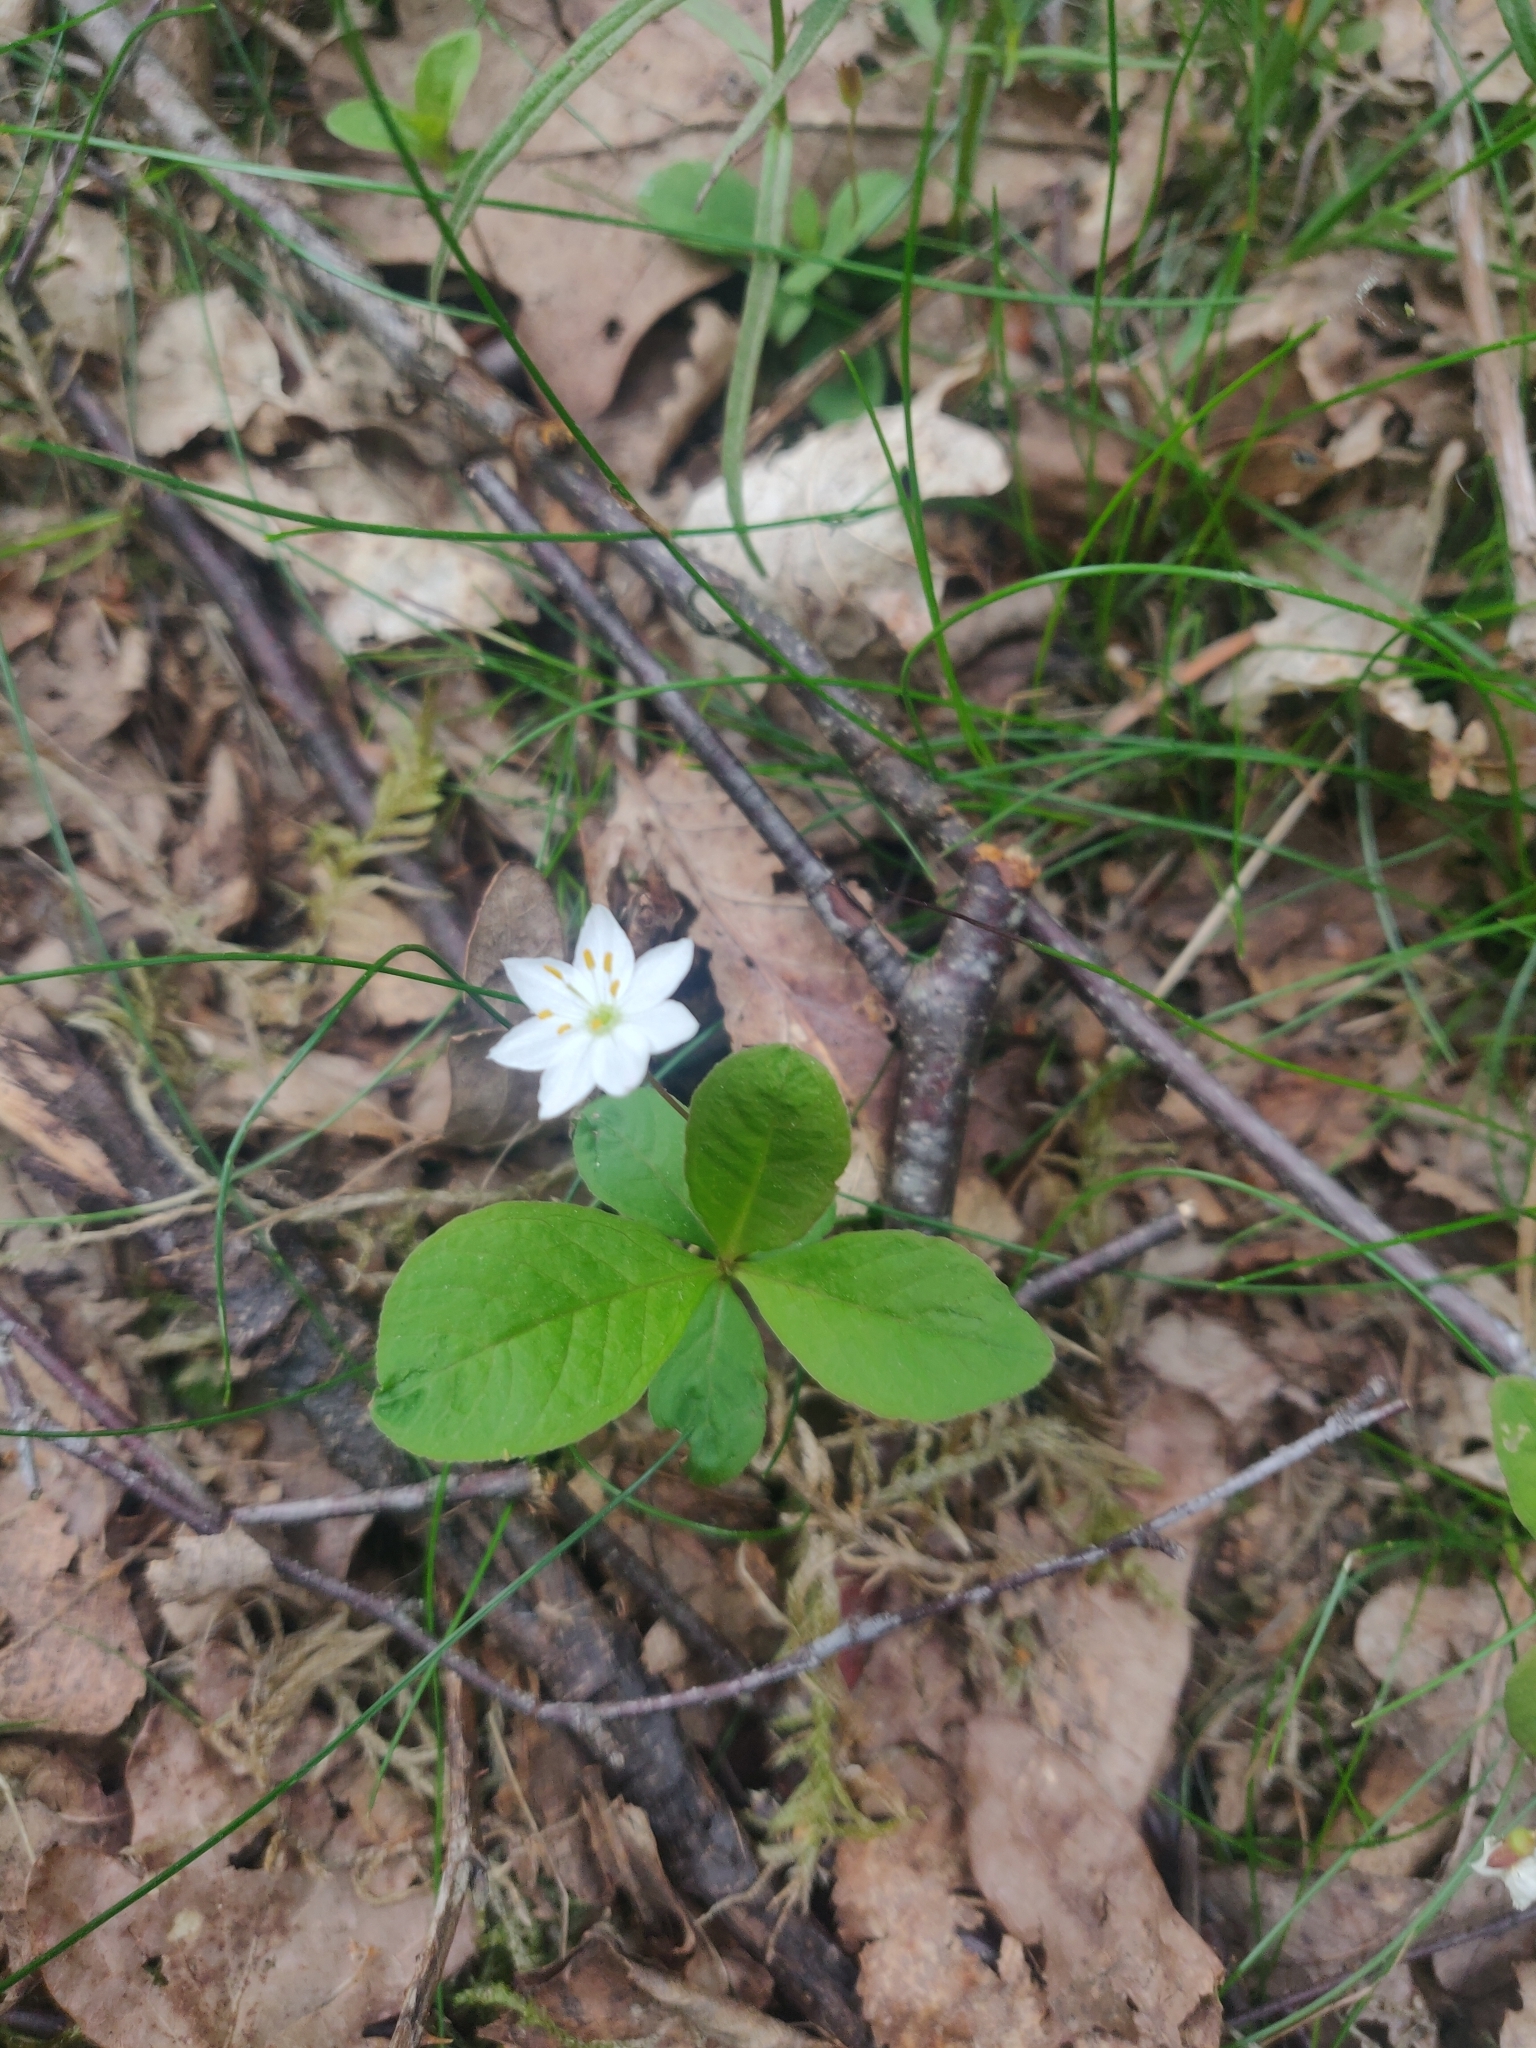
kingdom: Plantae
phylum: Tracheophyta
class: Magnoliopsida
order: Ericales
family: Primulaceae
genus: Lysimachia
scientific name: Lysimachia europaea
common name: Arctic starflower
